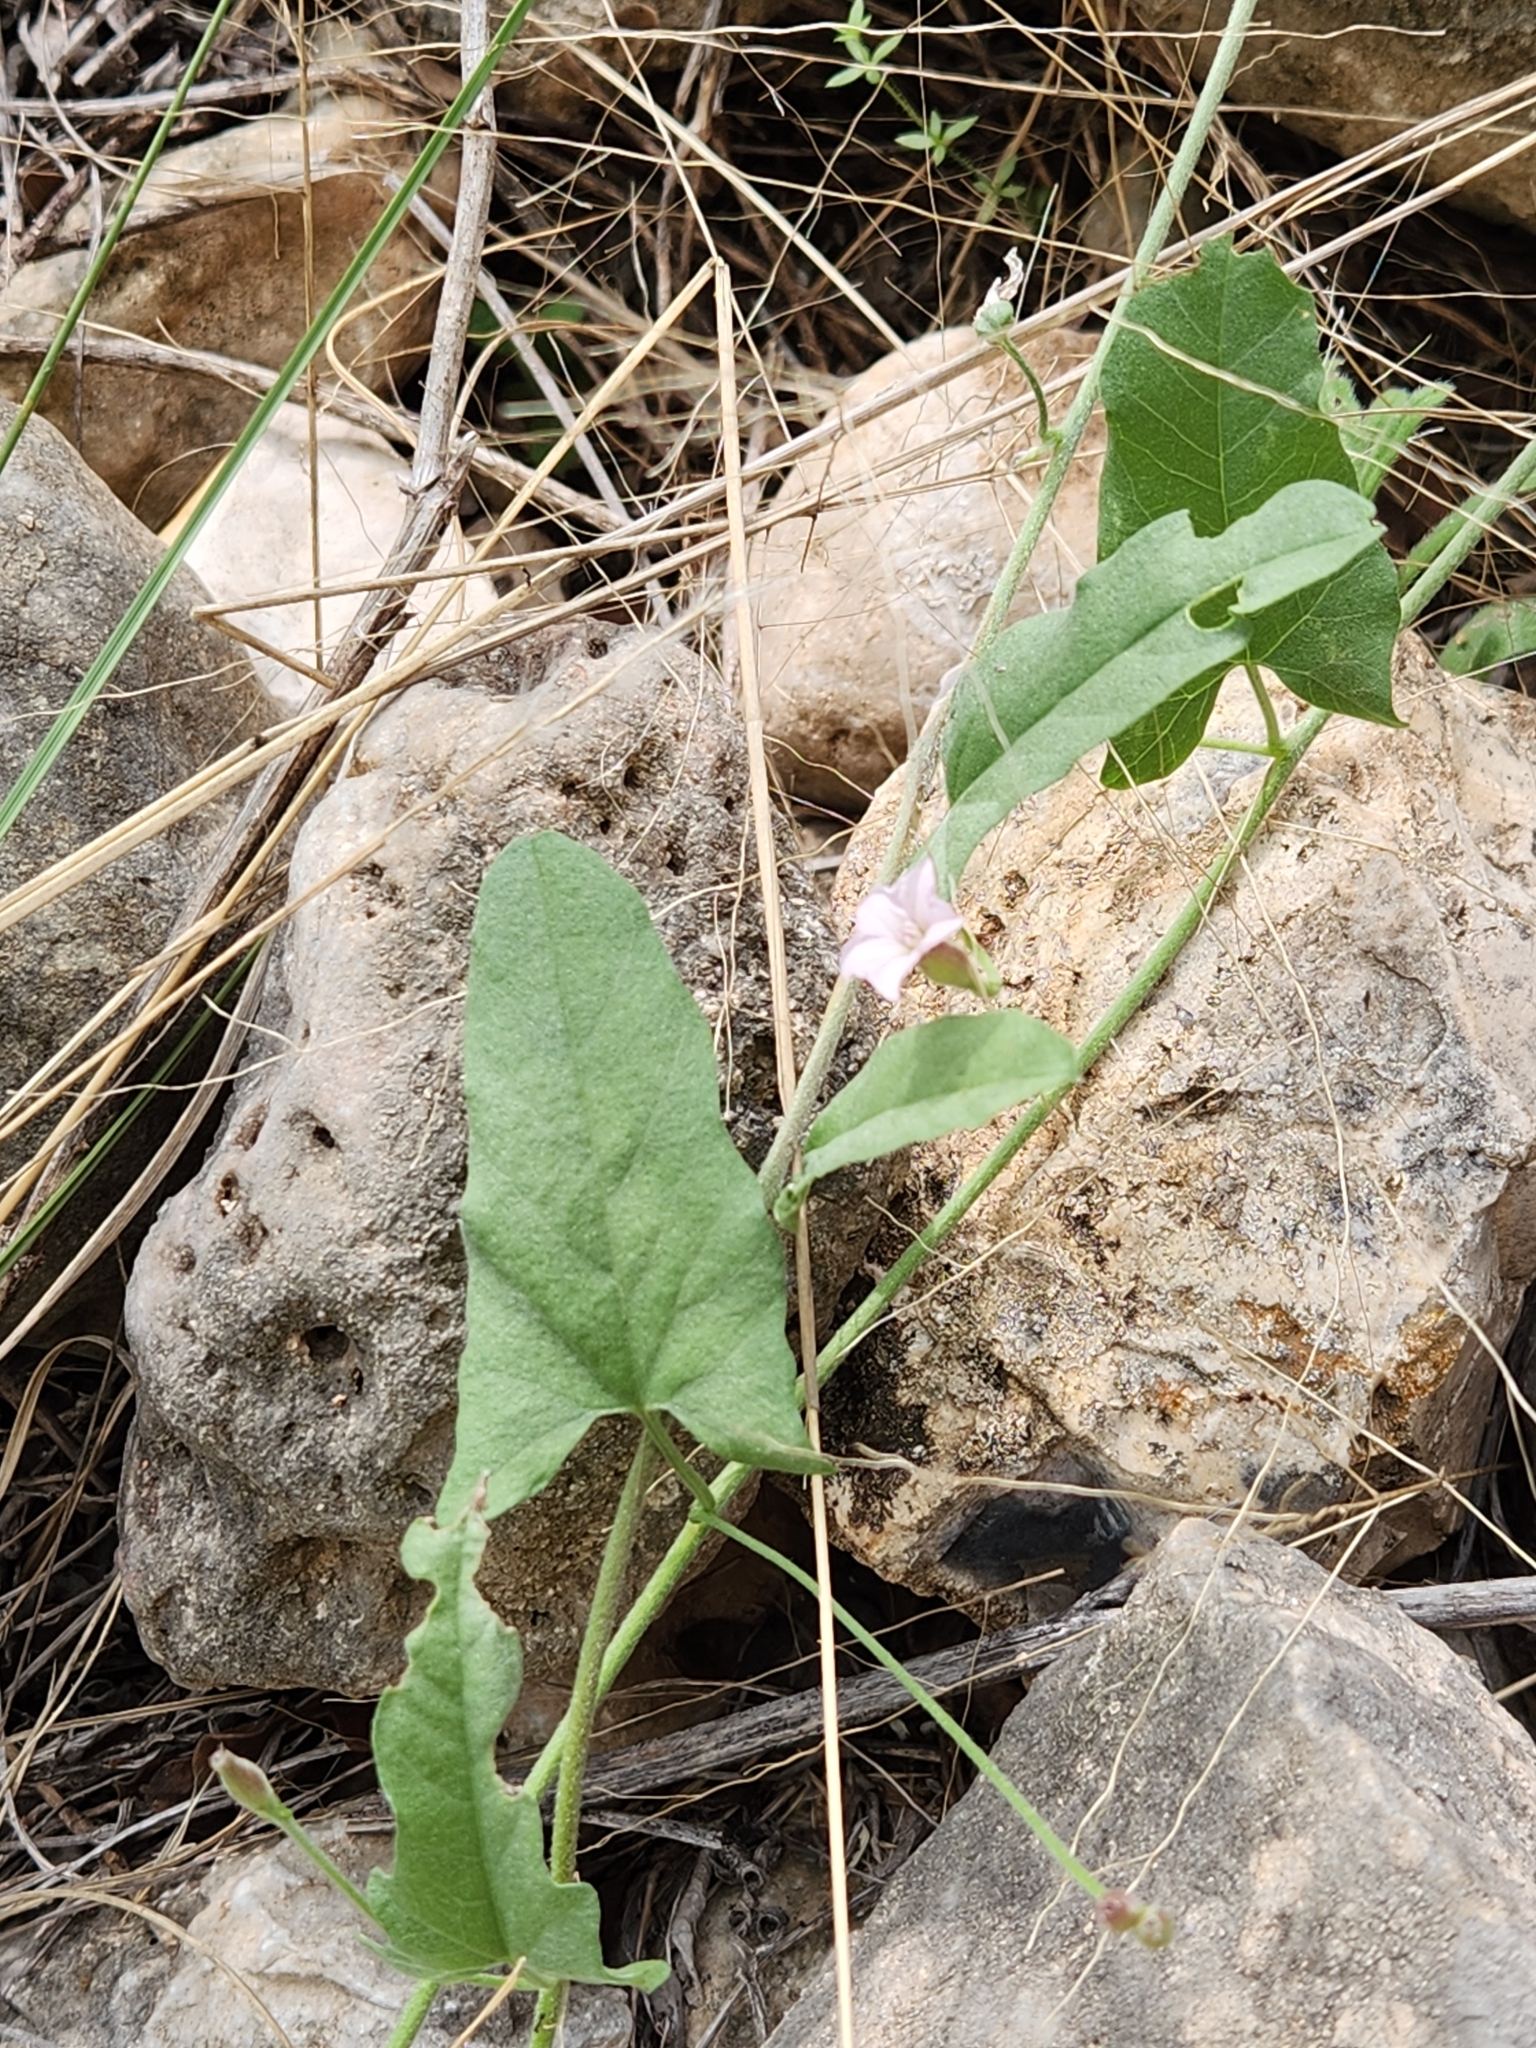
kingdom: Plantae
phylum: Tracheophyta
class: Magnoliopsida
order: Solanales
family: Convolvulaceae
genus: Convolvulus
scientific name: Convolvulus equitans
